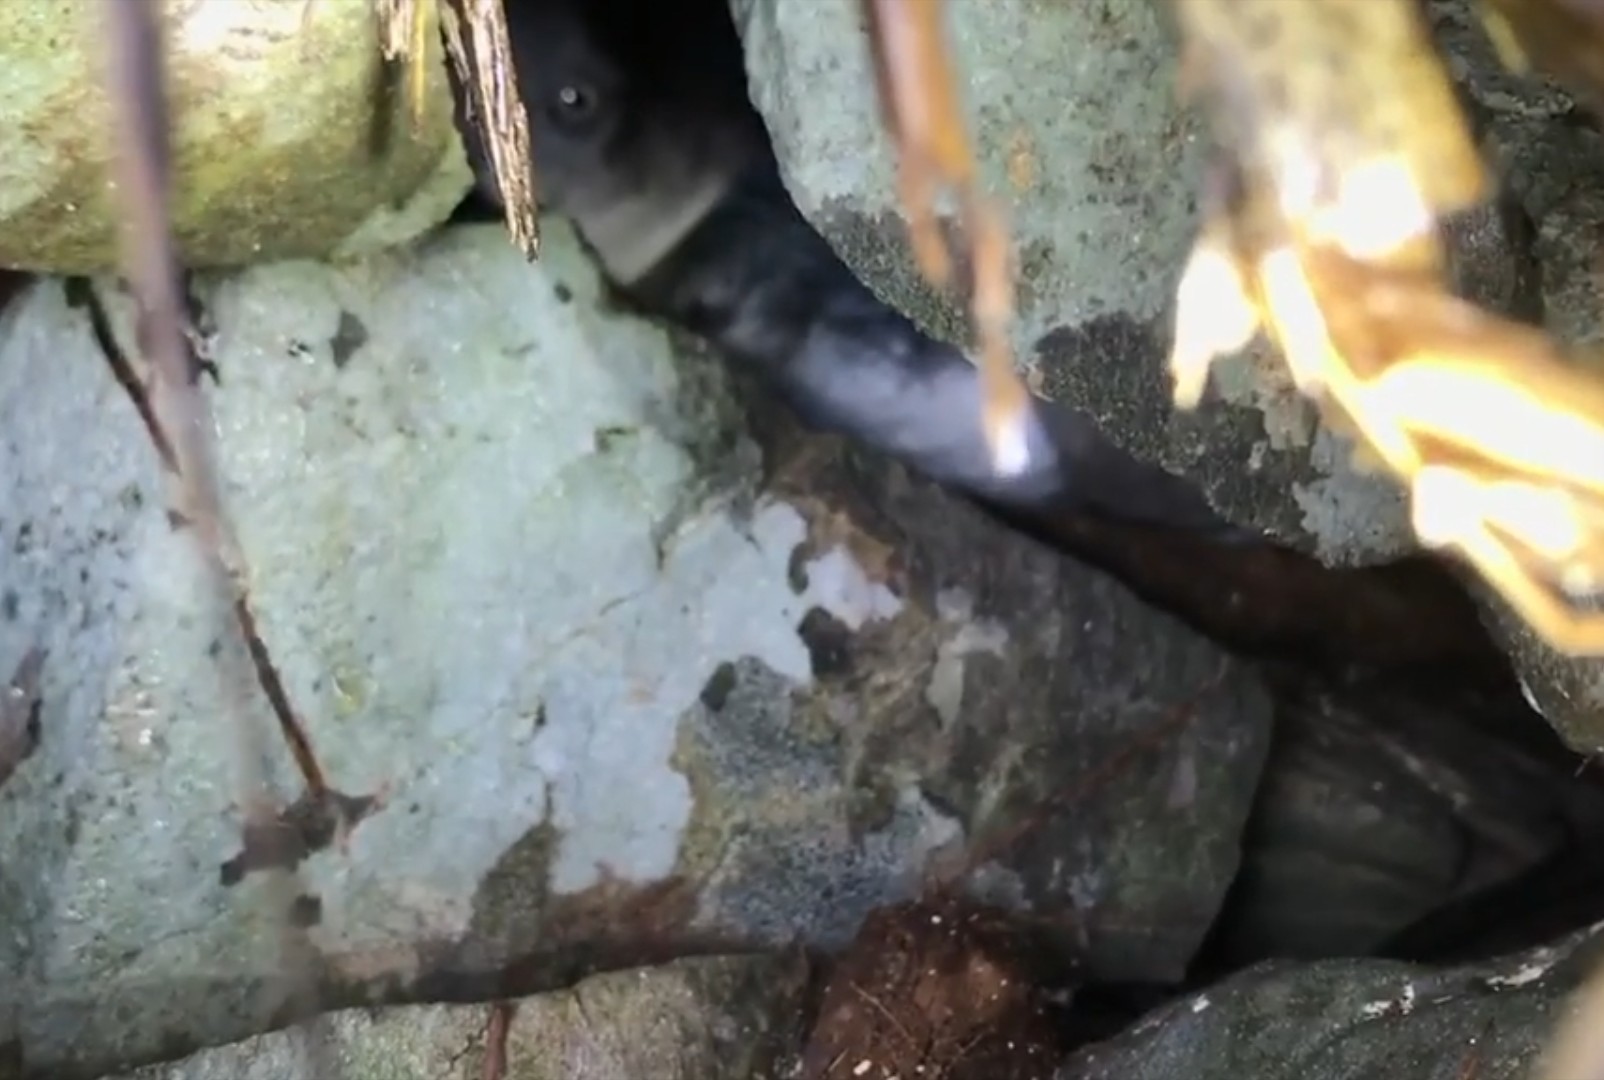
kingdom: Animalia
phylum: Chordata
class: Aves
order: Sphenisciformes
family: Spheniscidae
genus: Eudyptula
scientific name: Eudyptula minor
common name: Little penguin
